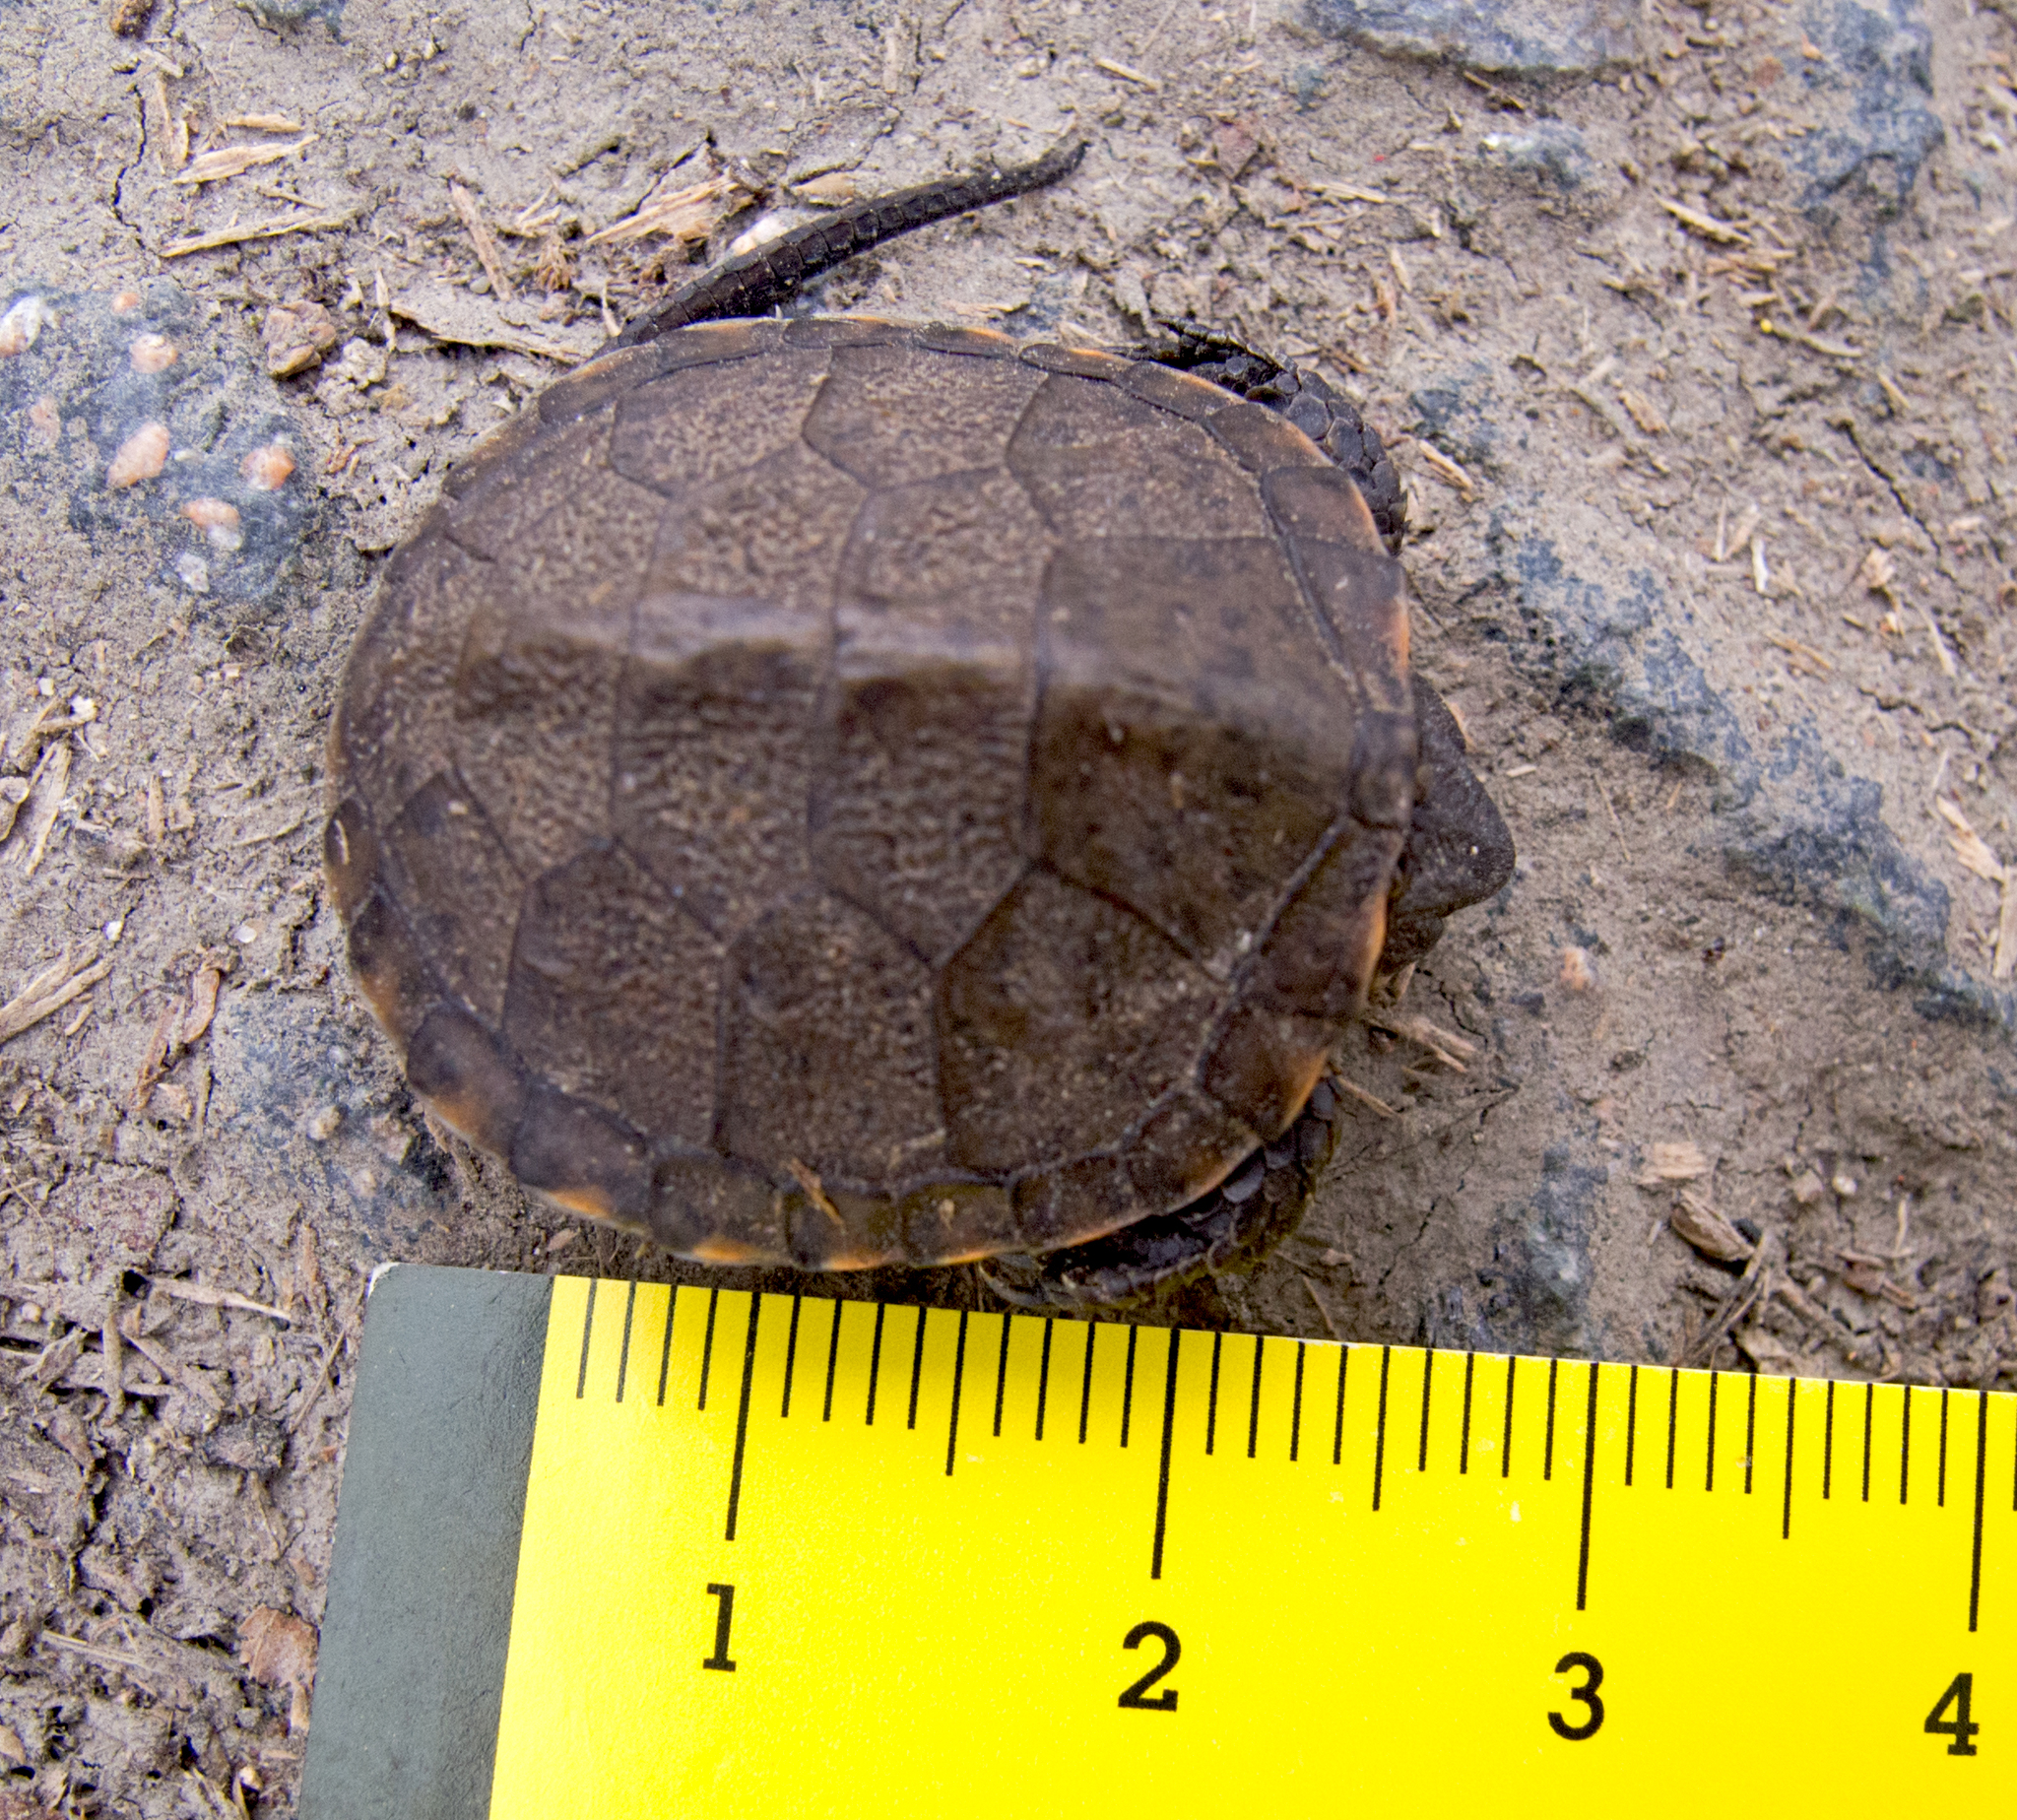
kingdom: Animalia
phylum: Chordata
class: Testudines
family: Emydidae
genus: Emys
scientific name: Emys orbicularis
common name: European pond turtle
